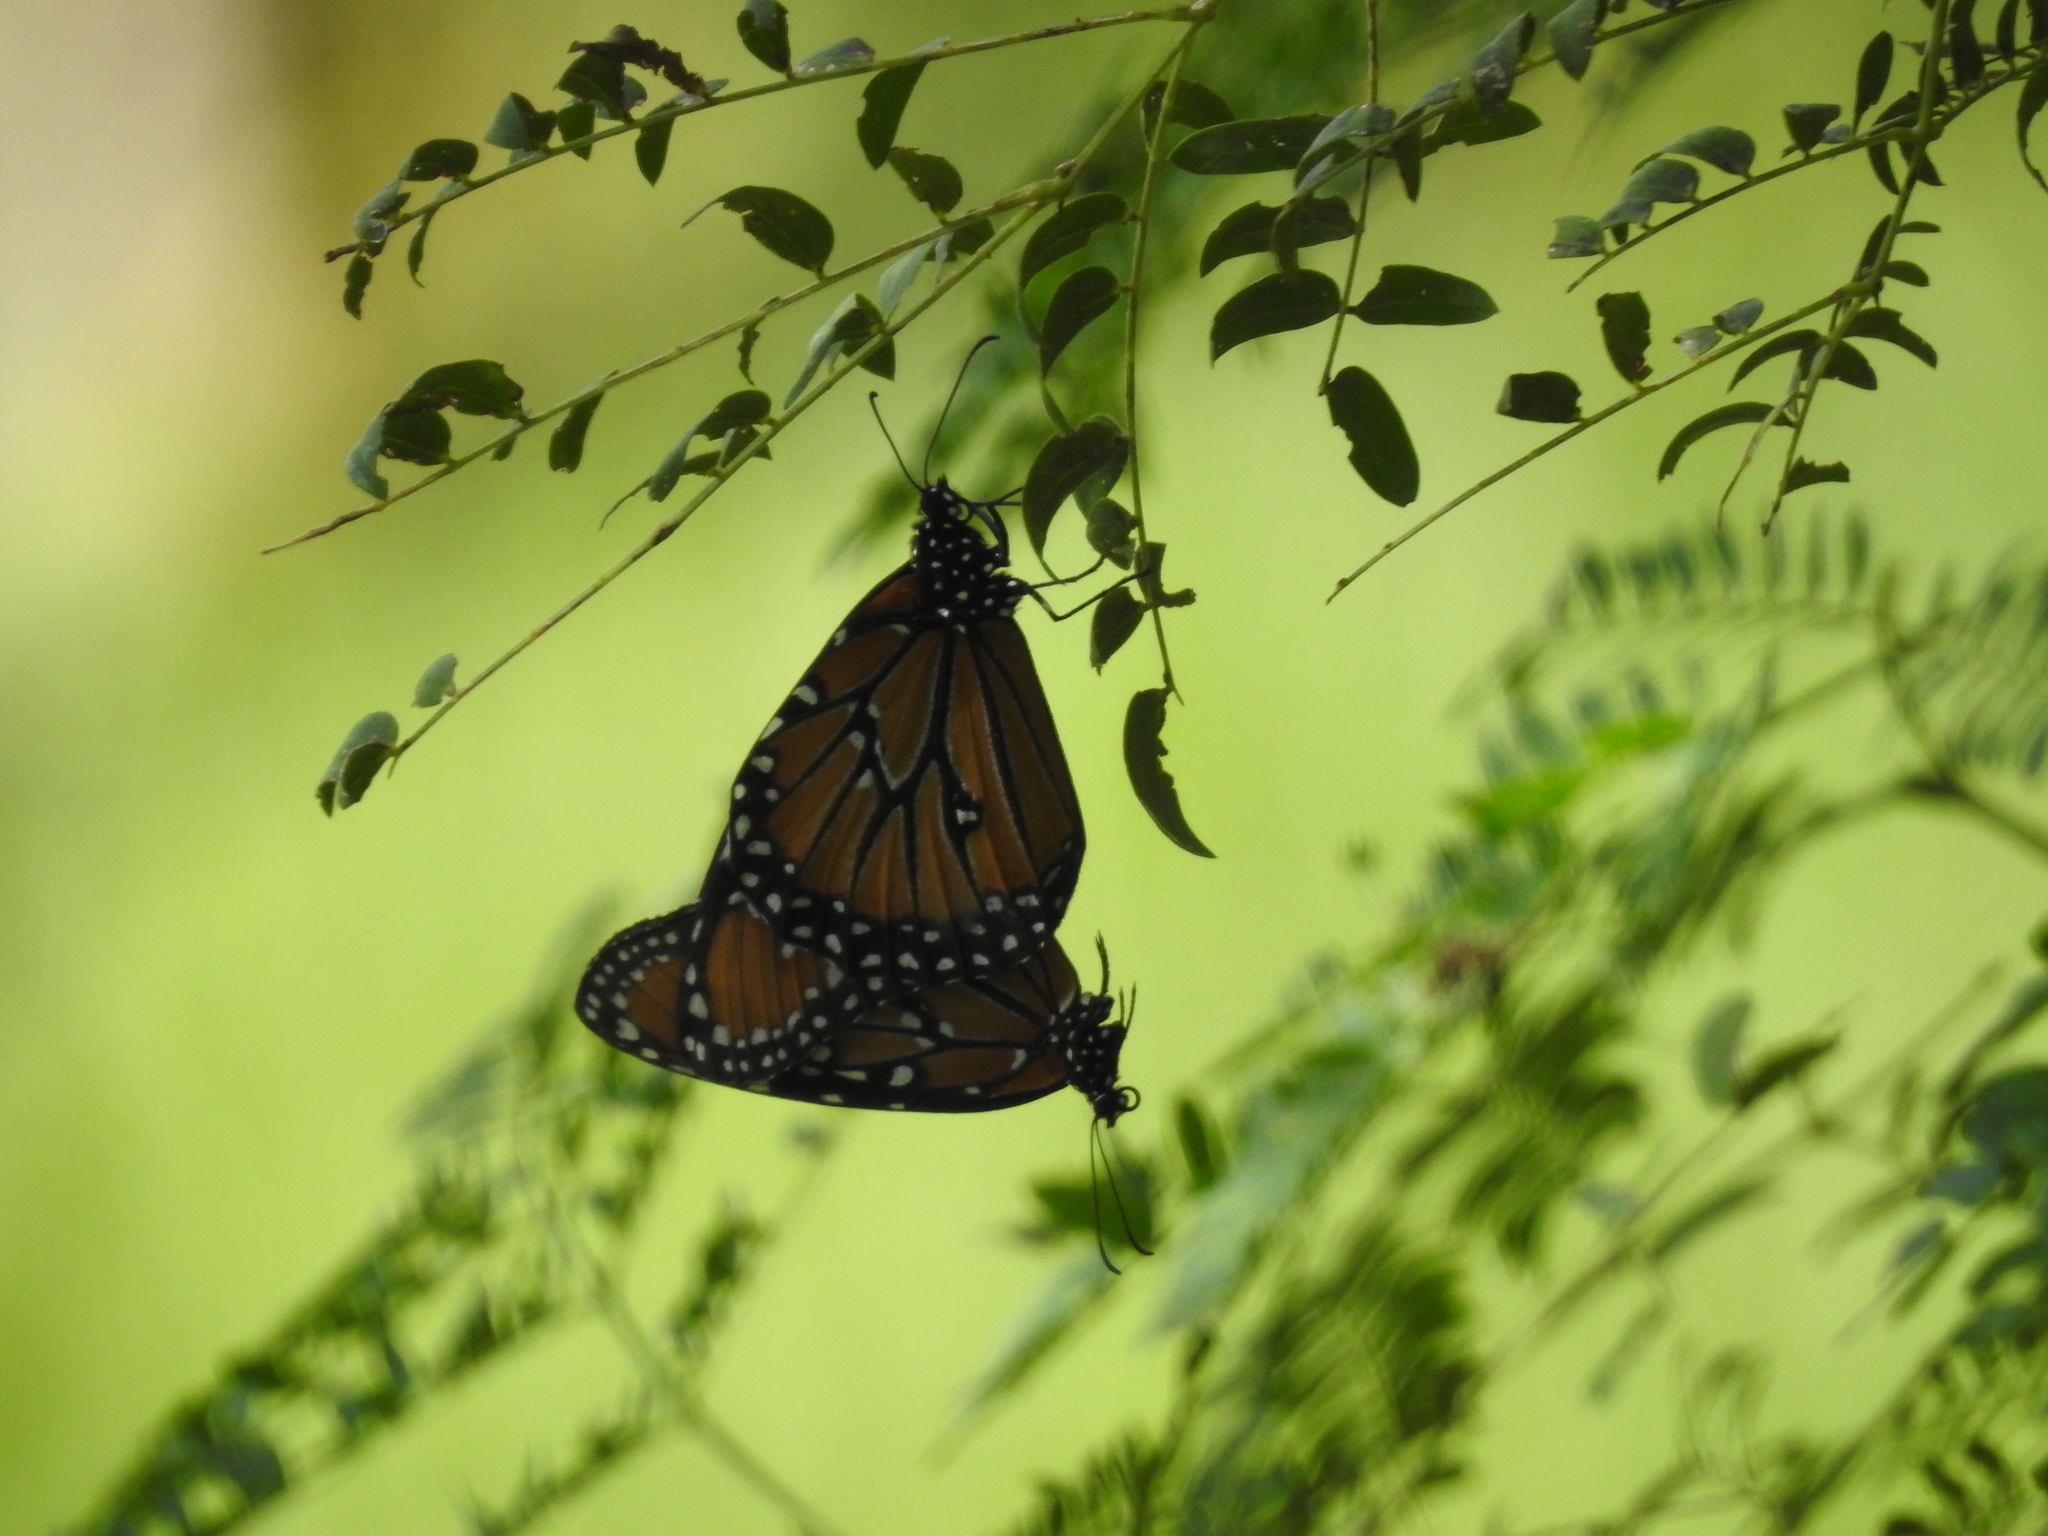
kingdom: Animalia
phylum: Arthropoda
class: Insecta
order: Lepidoptera
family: Nymphalidae
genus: Danaus
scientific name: Danaus gilippus
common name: Queen
